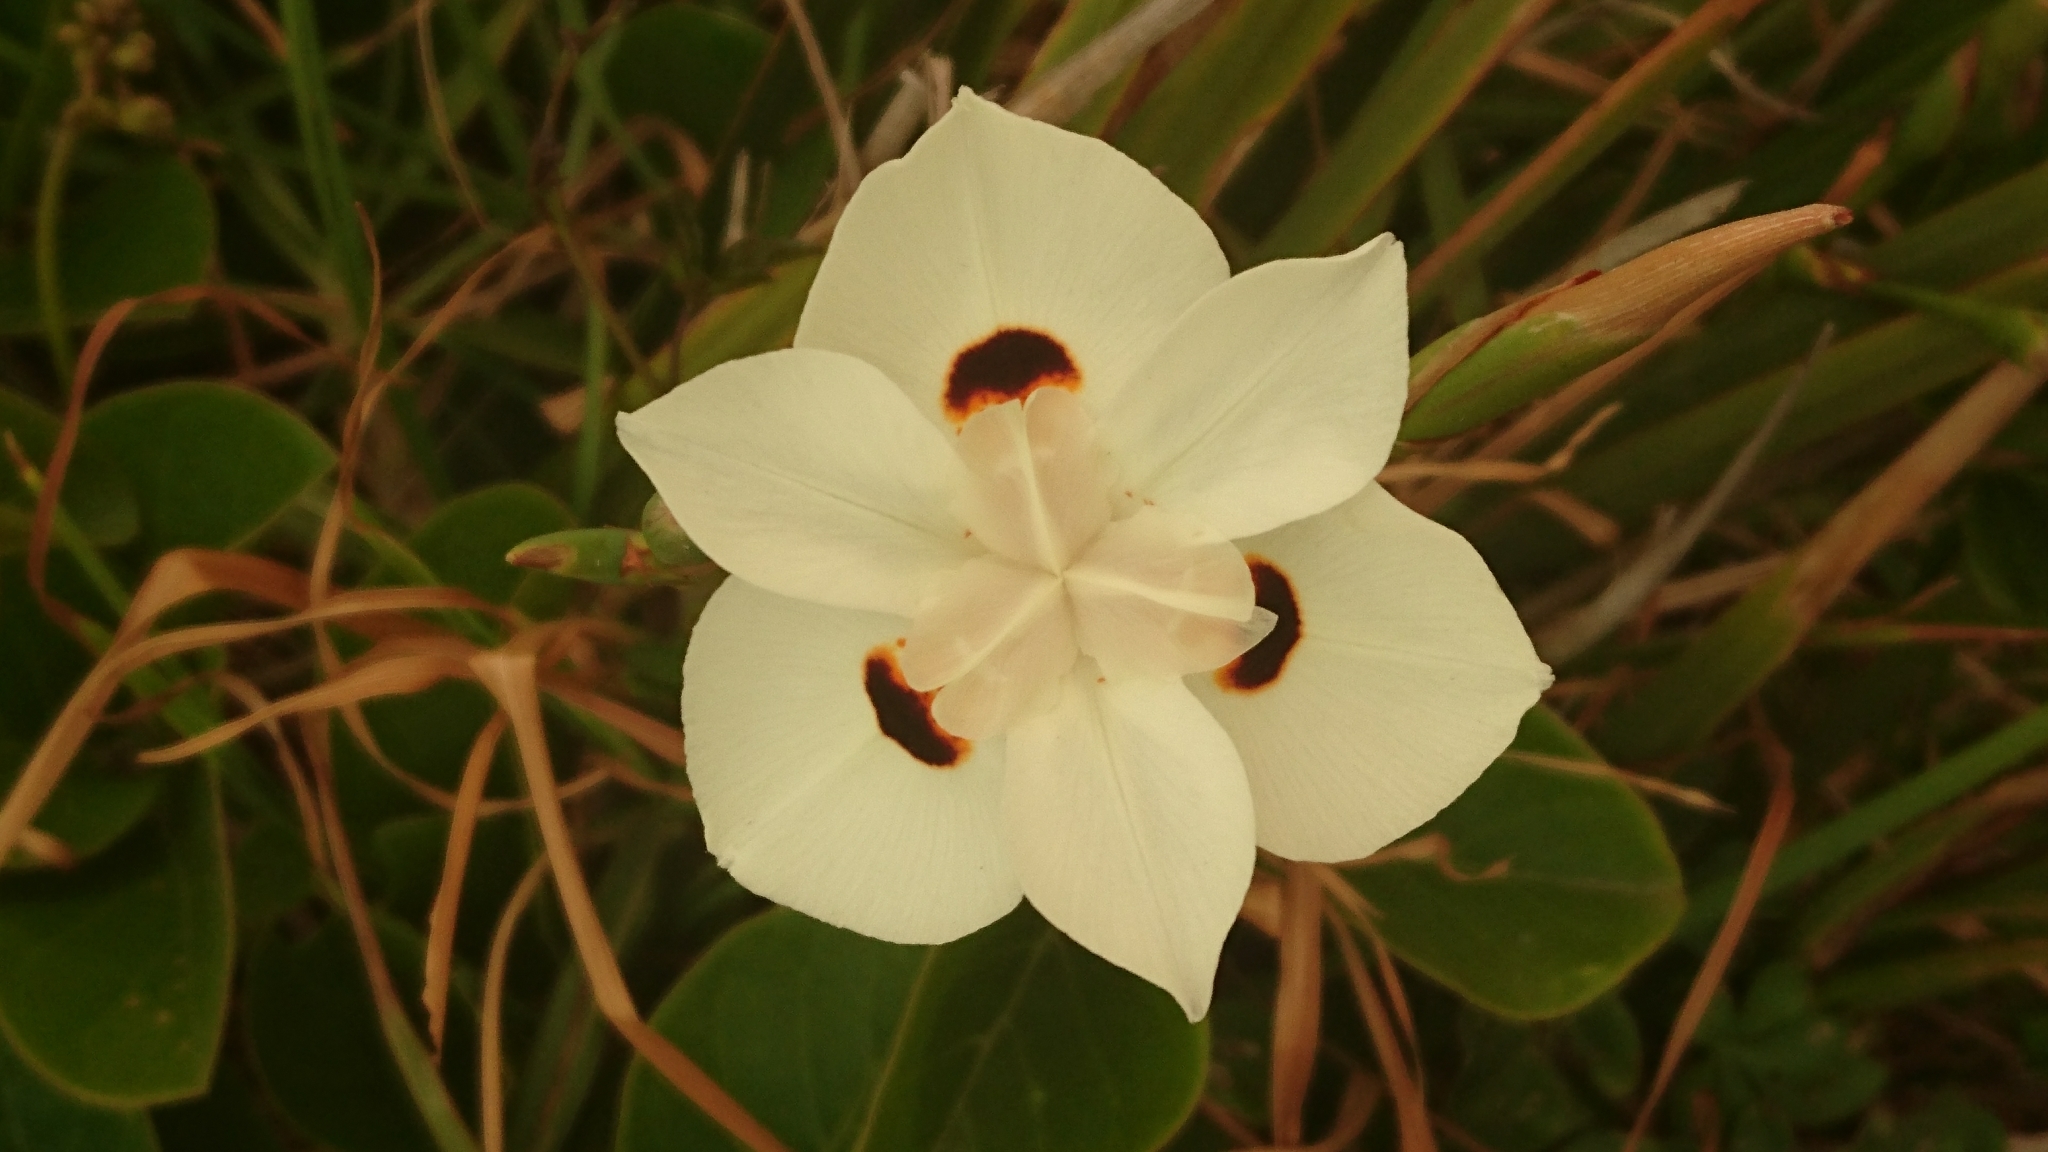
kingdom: Plantae
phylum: Tracheophyta
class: Liliopsida
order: Asparagales
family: Iridaceae
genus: Dietes
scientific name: Dietes bicolor
